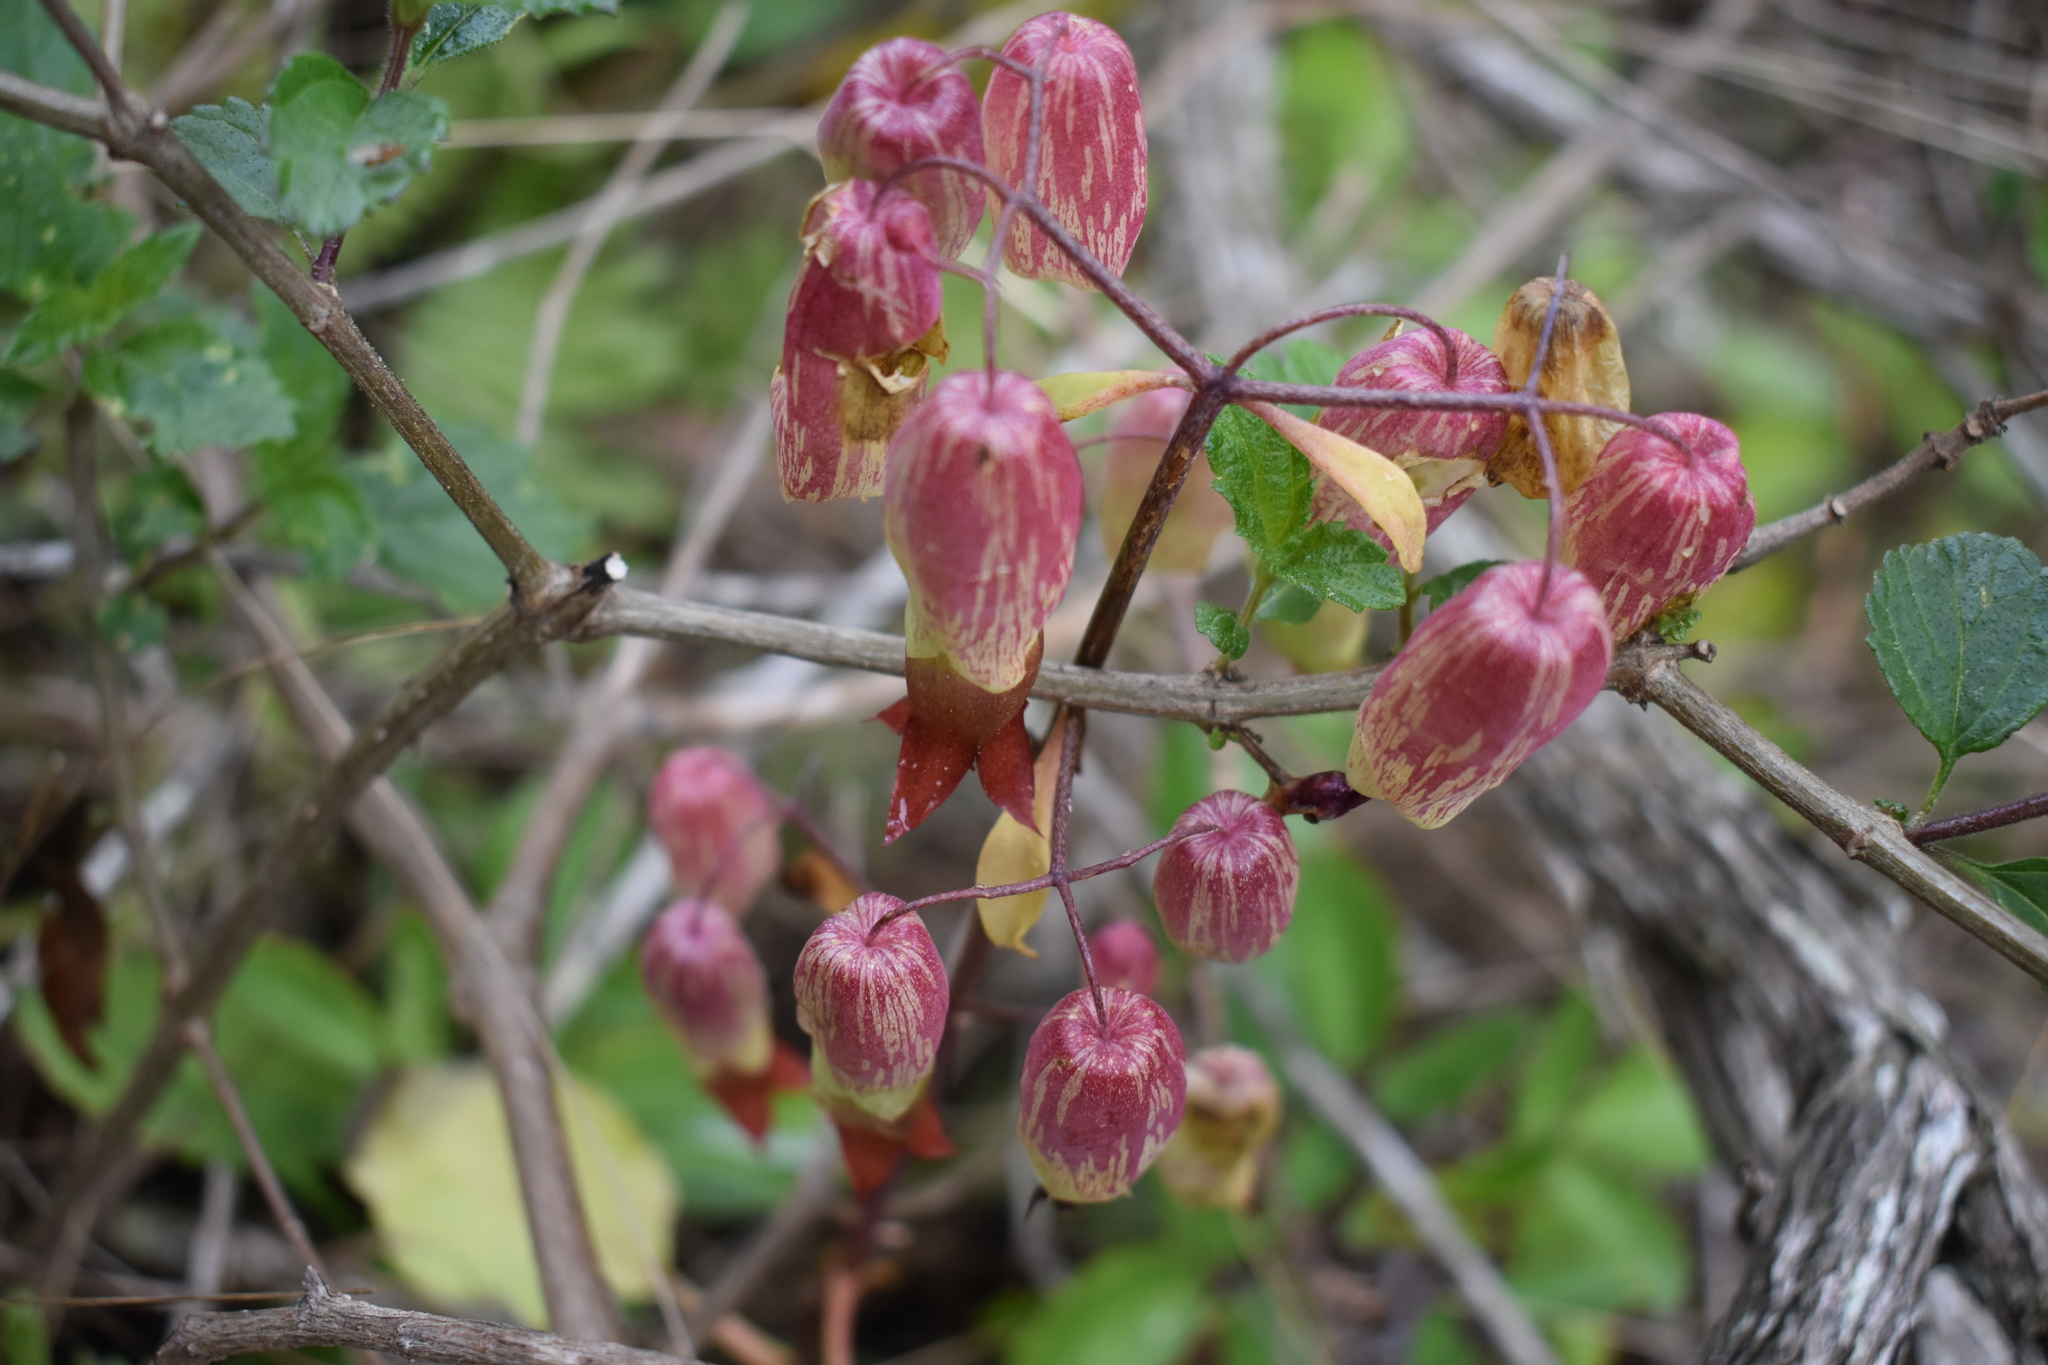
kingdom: Plantae
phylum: Tracheophyta
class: Magnoliopsida
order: Saxifragales
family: Crassulaceae
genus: Kalanchoe
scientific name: Kalanchoe pinnata
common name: Cathedral bells
